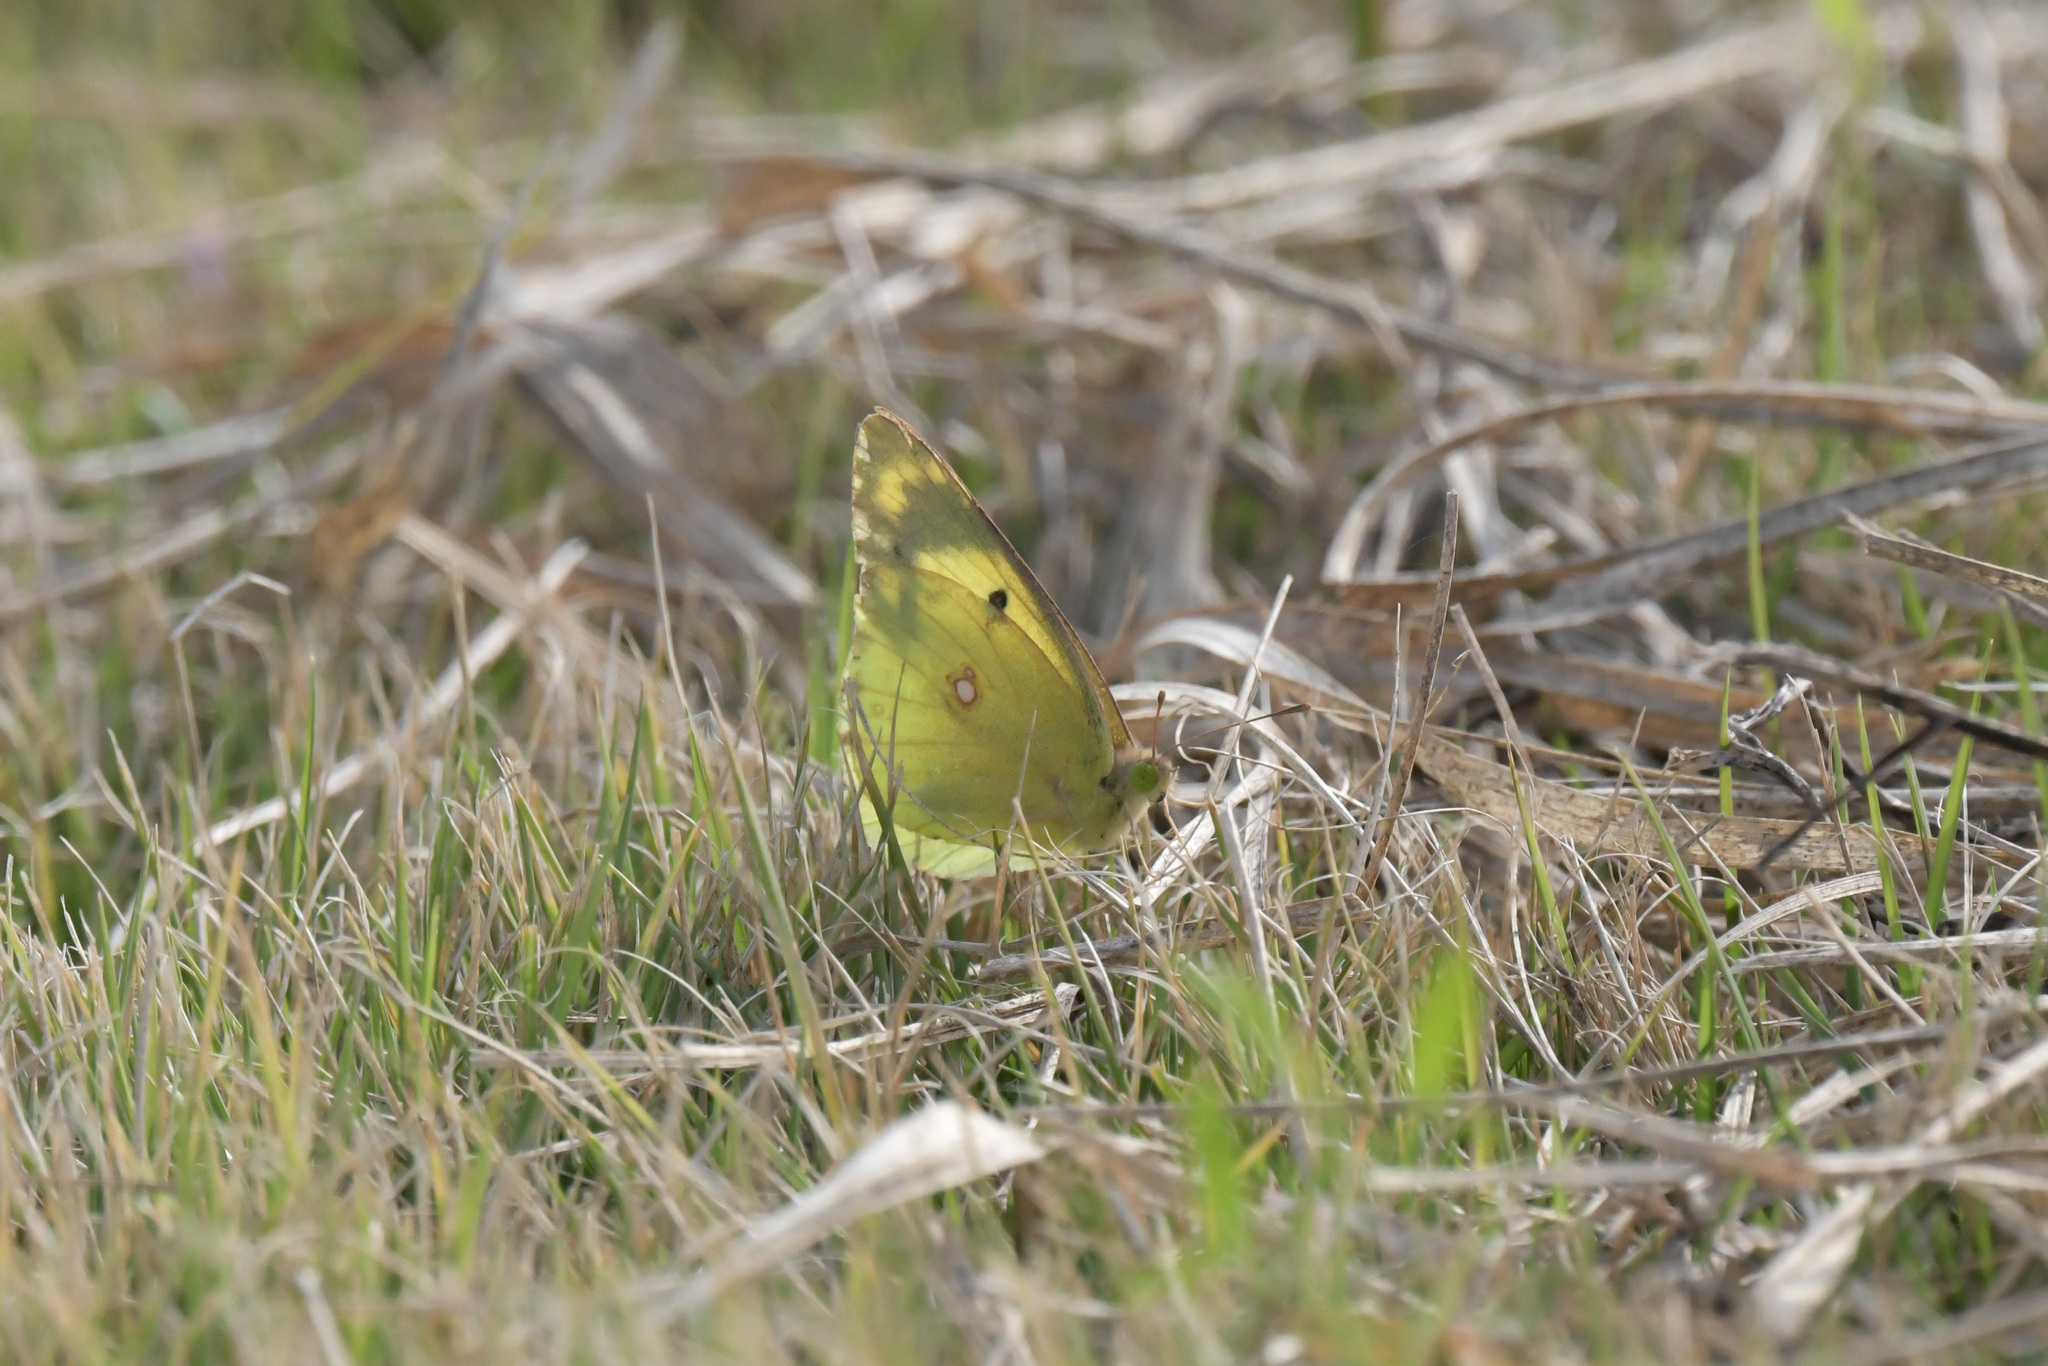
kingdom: Animalia
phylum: Arthropoda
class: Insecta
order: Lepidoptera
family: Pieridae
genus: Colias
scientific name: Colias poliographus
